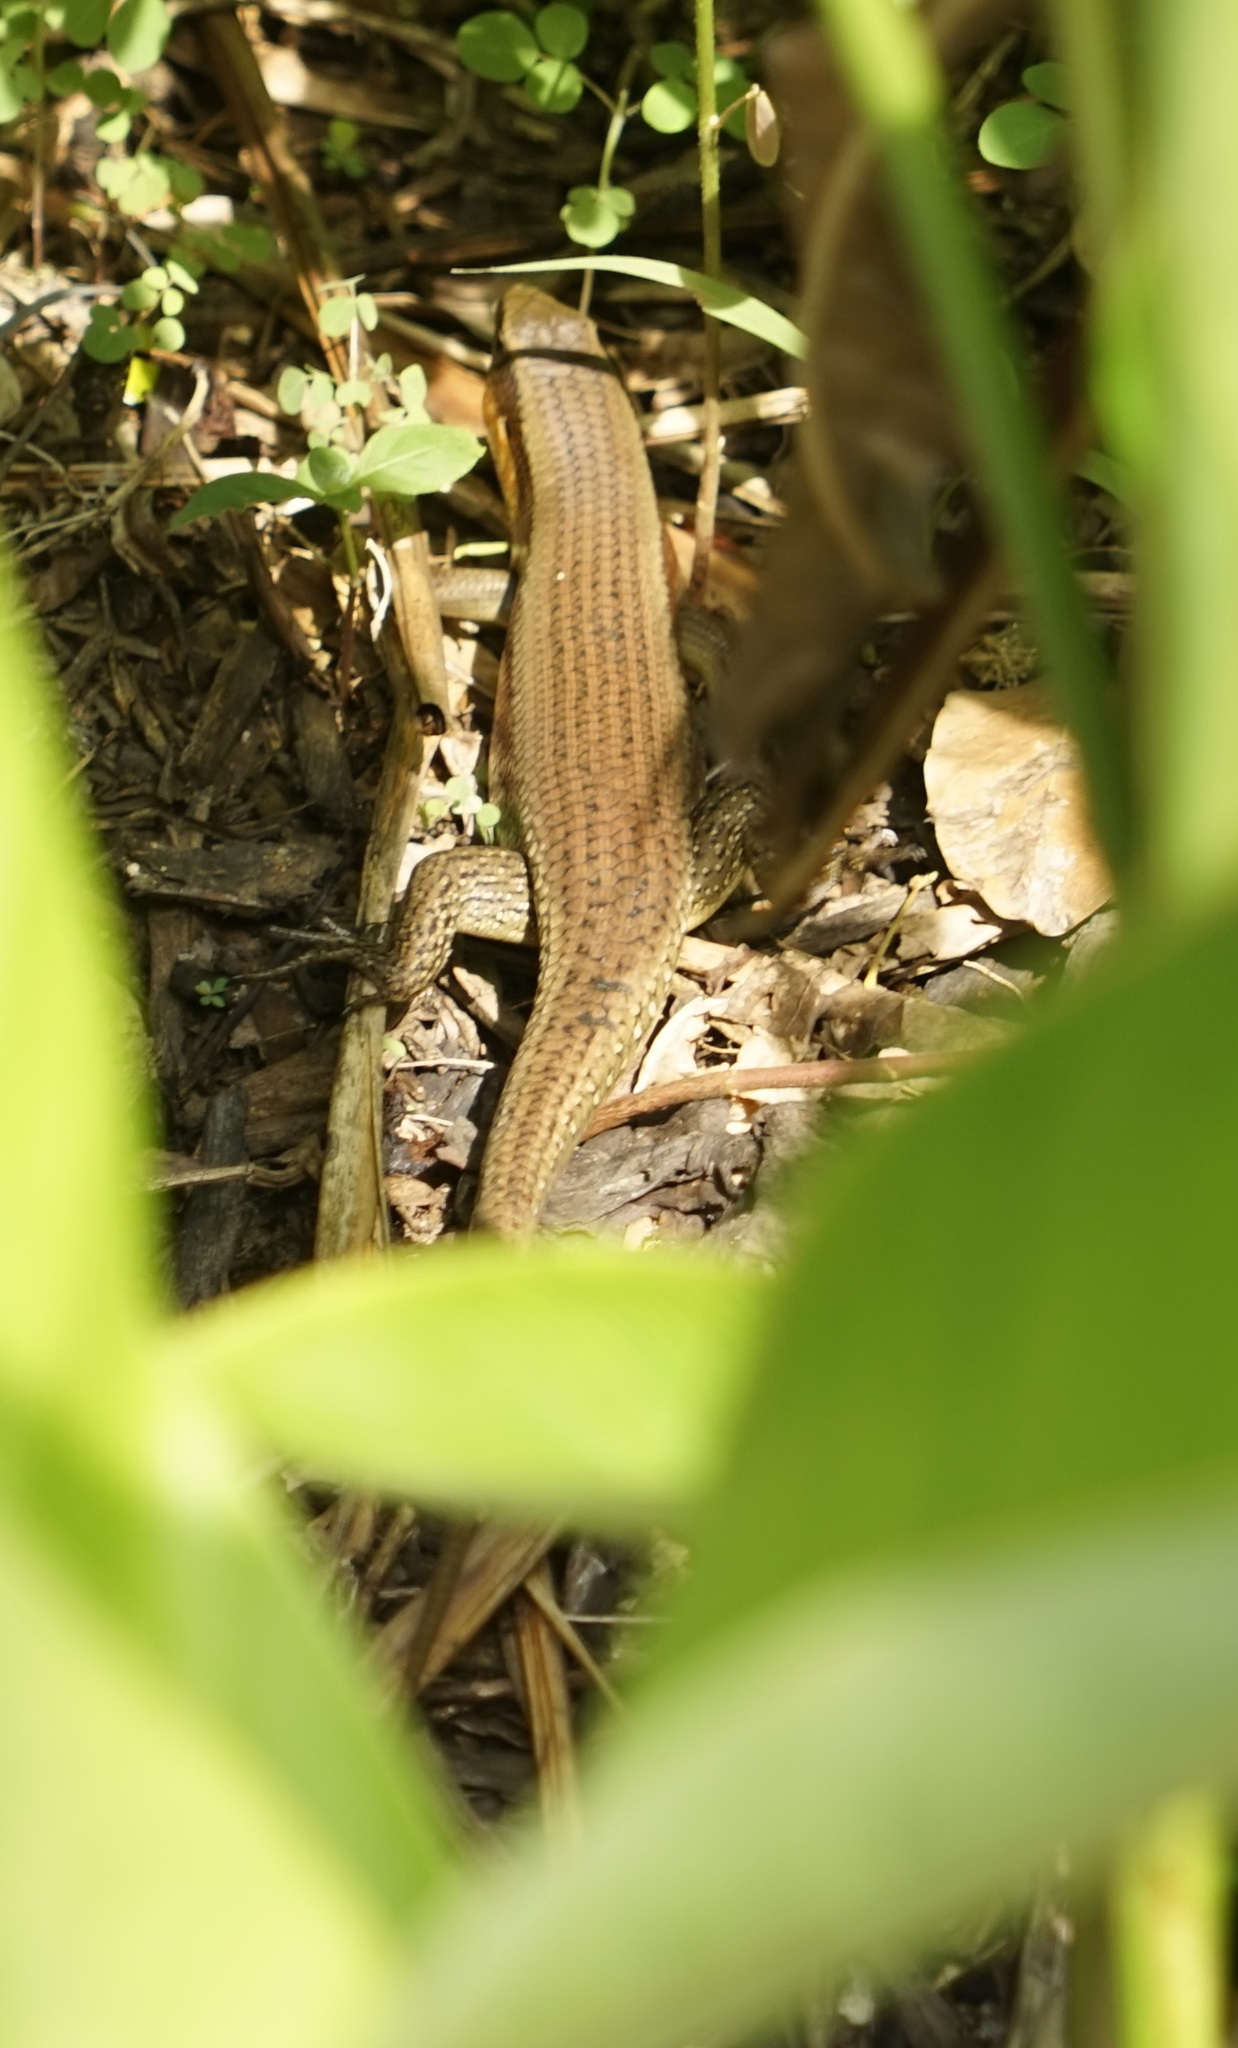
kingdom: Animalia
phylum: Chordata
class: Squamata
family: Scincidae
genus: Eutropis
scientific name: Eutropis multifasciata
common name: Common mabuya
